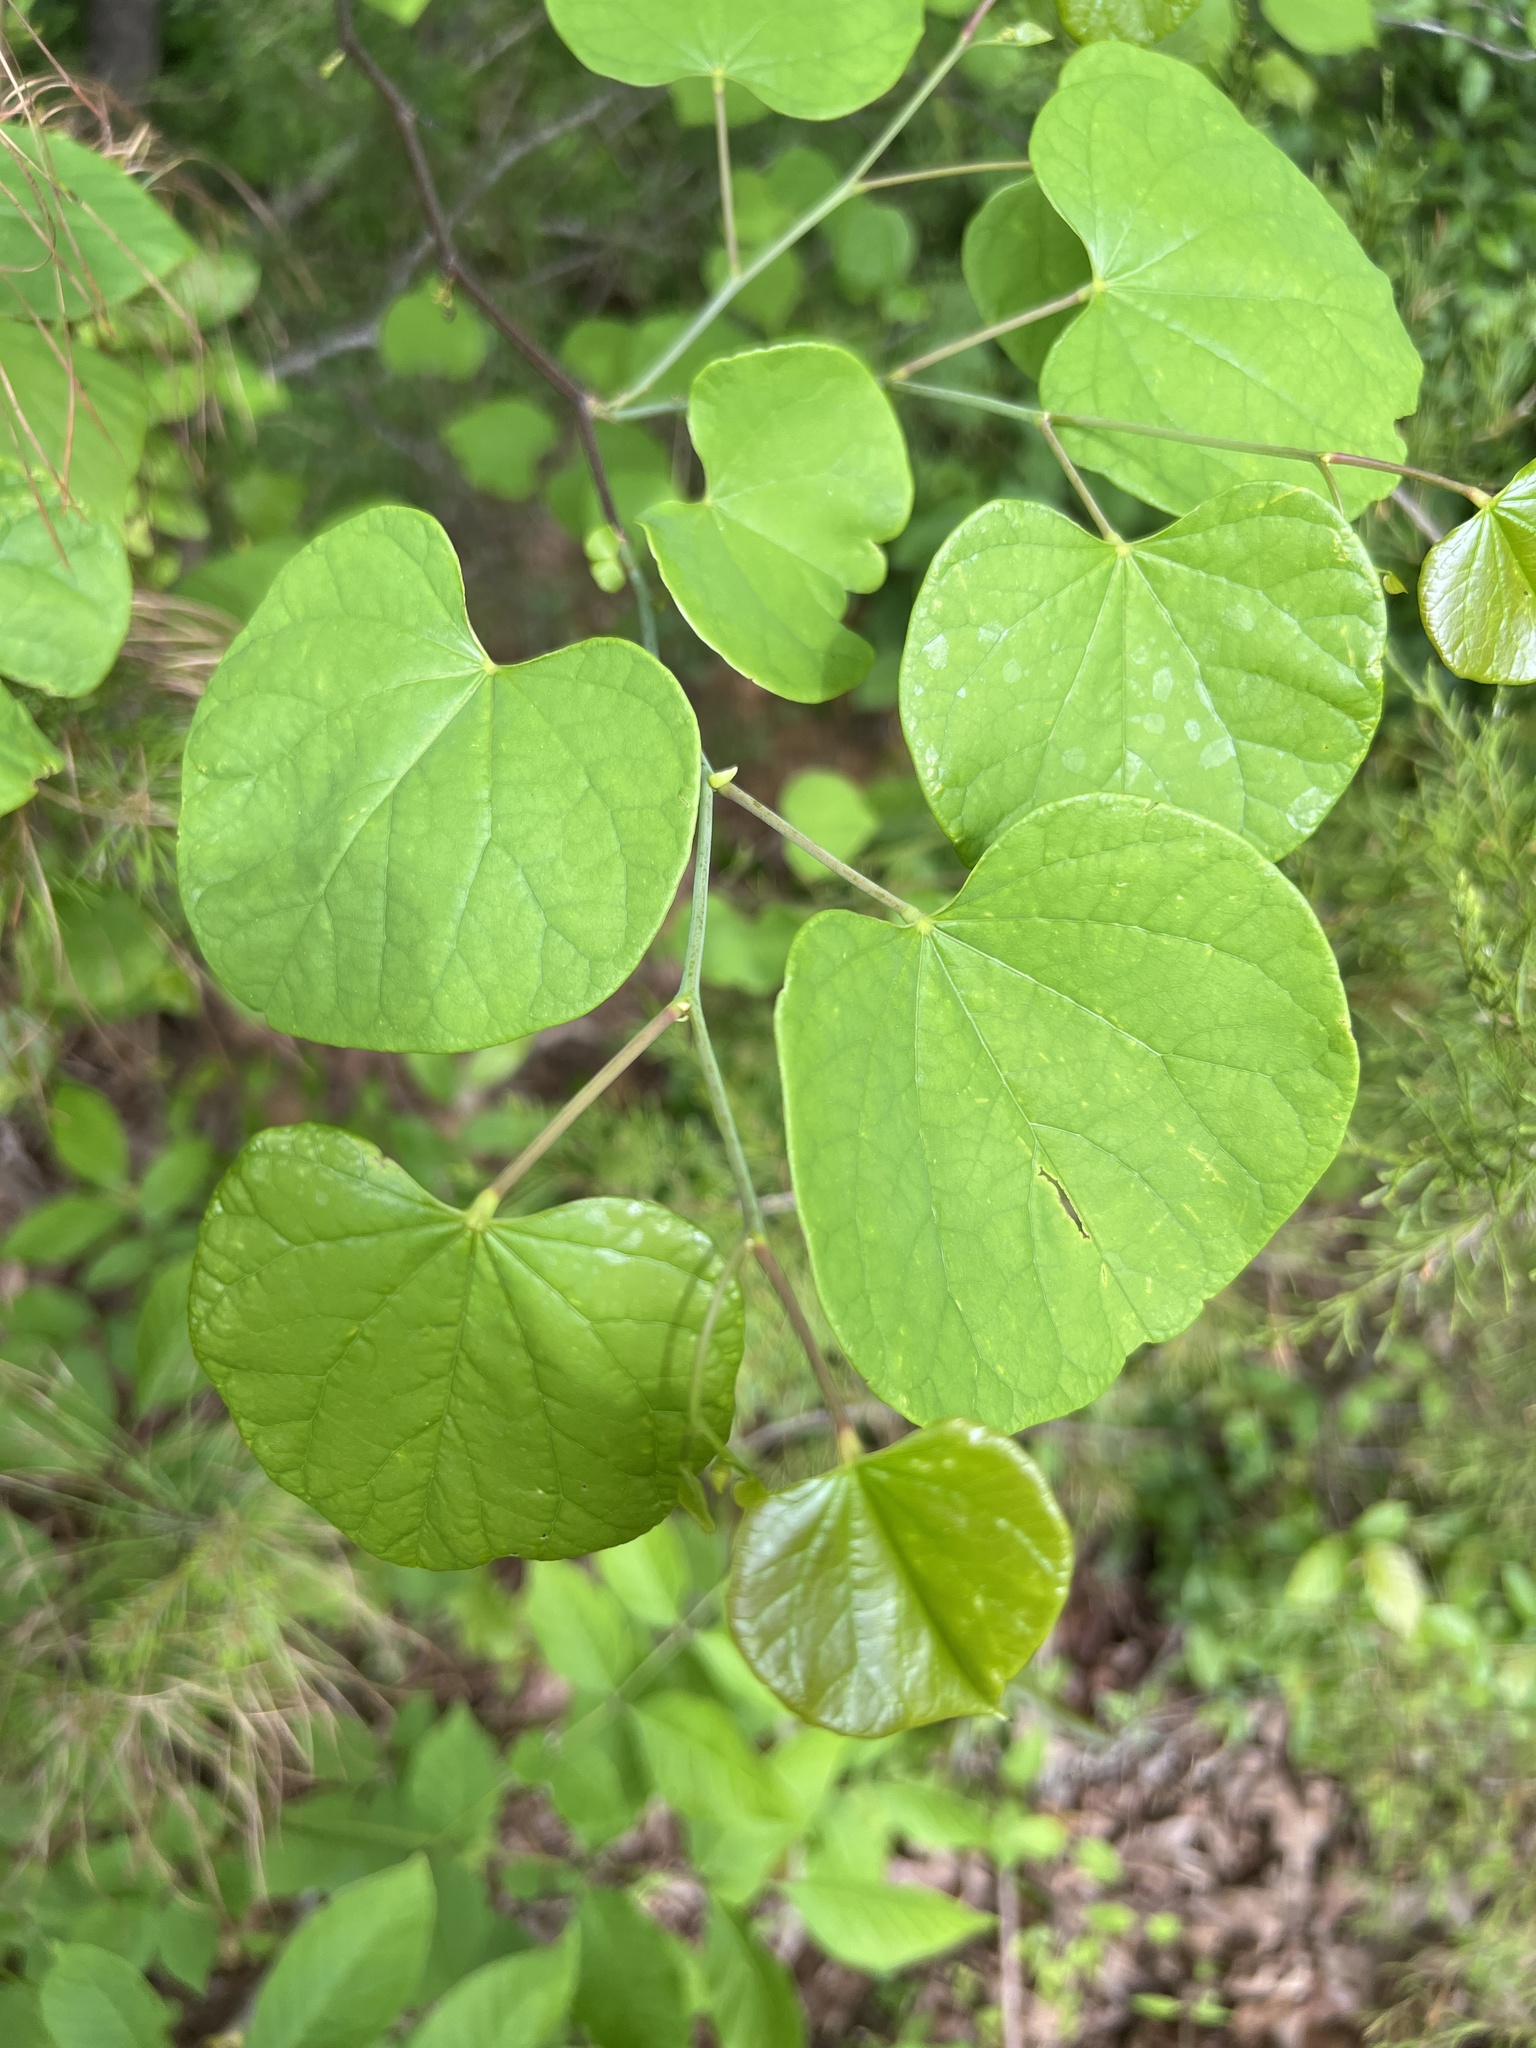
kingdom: Plantae
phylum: Tracheophyta
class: Magnoliopsida
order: Fabales
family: Fabaceae
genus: Cercis
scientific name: Cercis canadensis
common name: Eastern redbud
